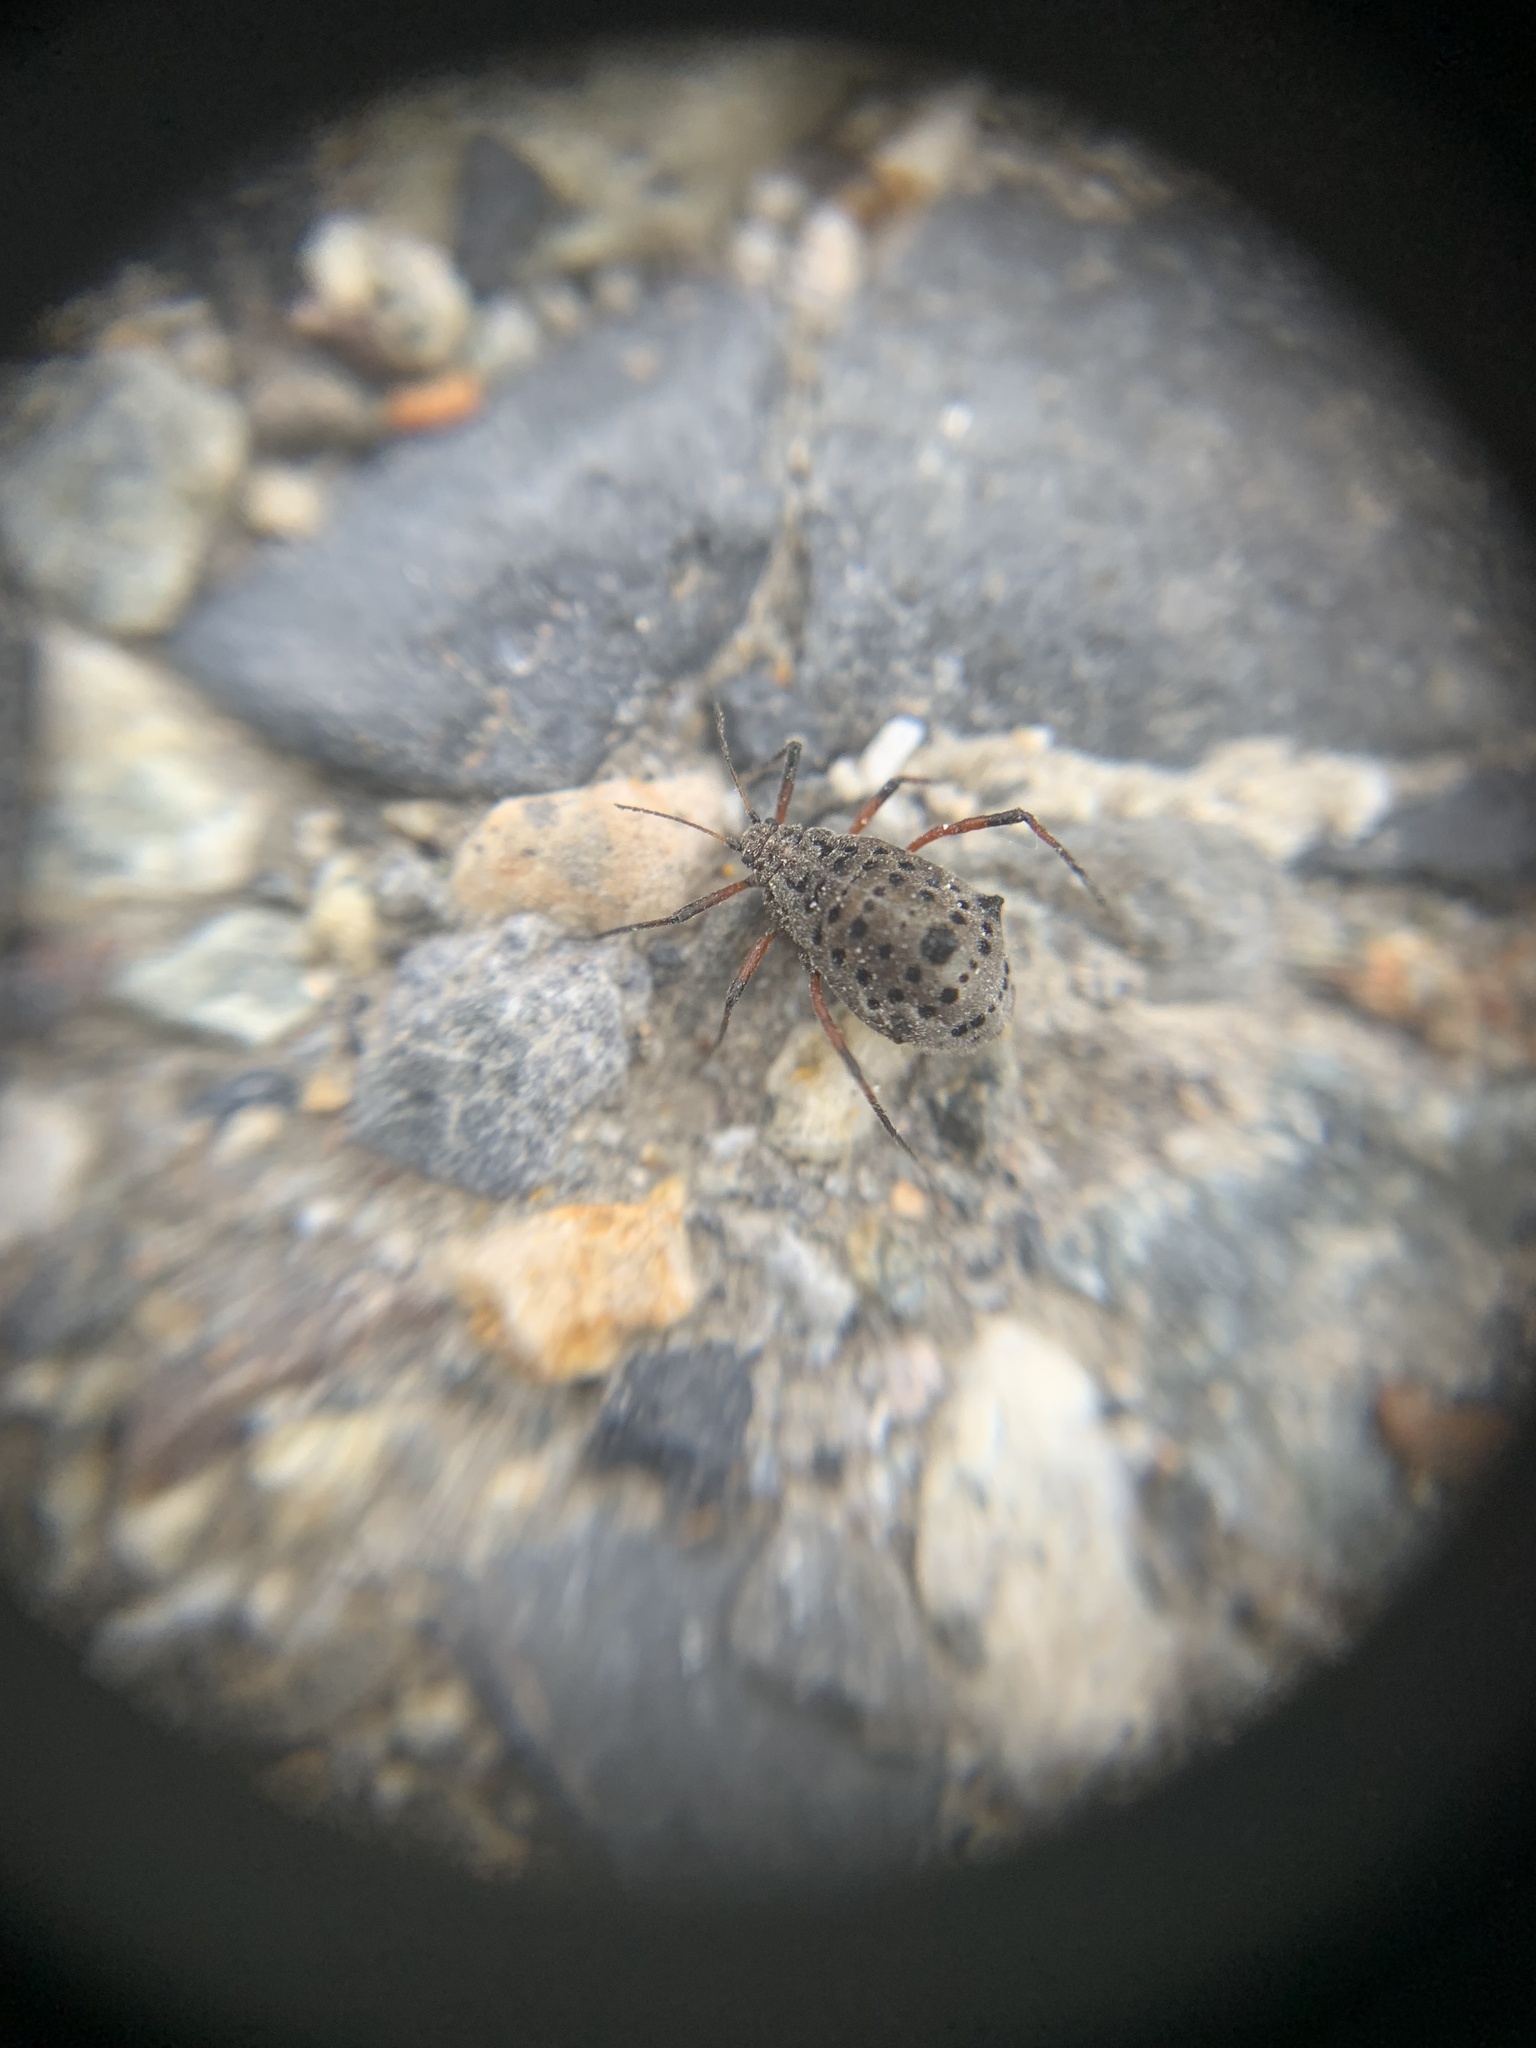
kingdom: Animalia
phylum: Arthropoda
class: Insecta
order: Hemiptera
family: Aphididae
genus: Tuberolachnus
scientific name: Tuberolachnus salignus
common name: Giant willow aphid
